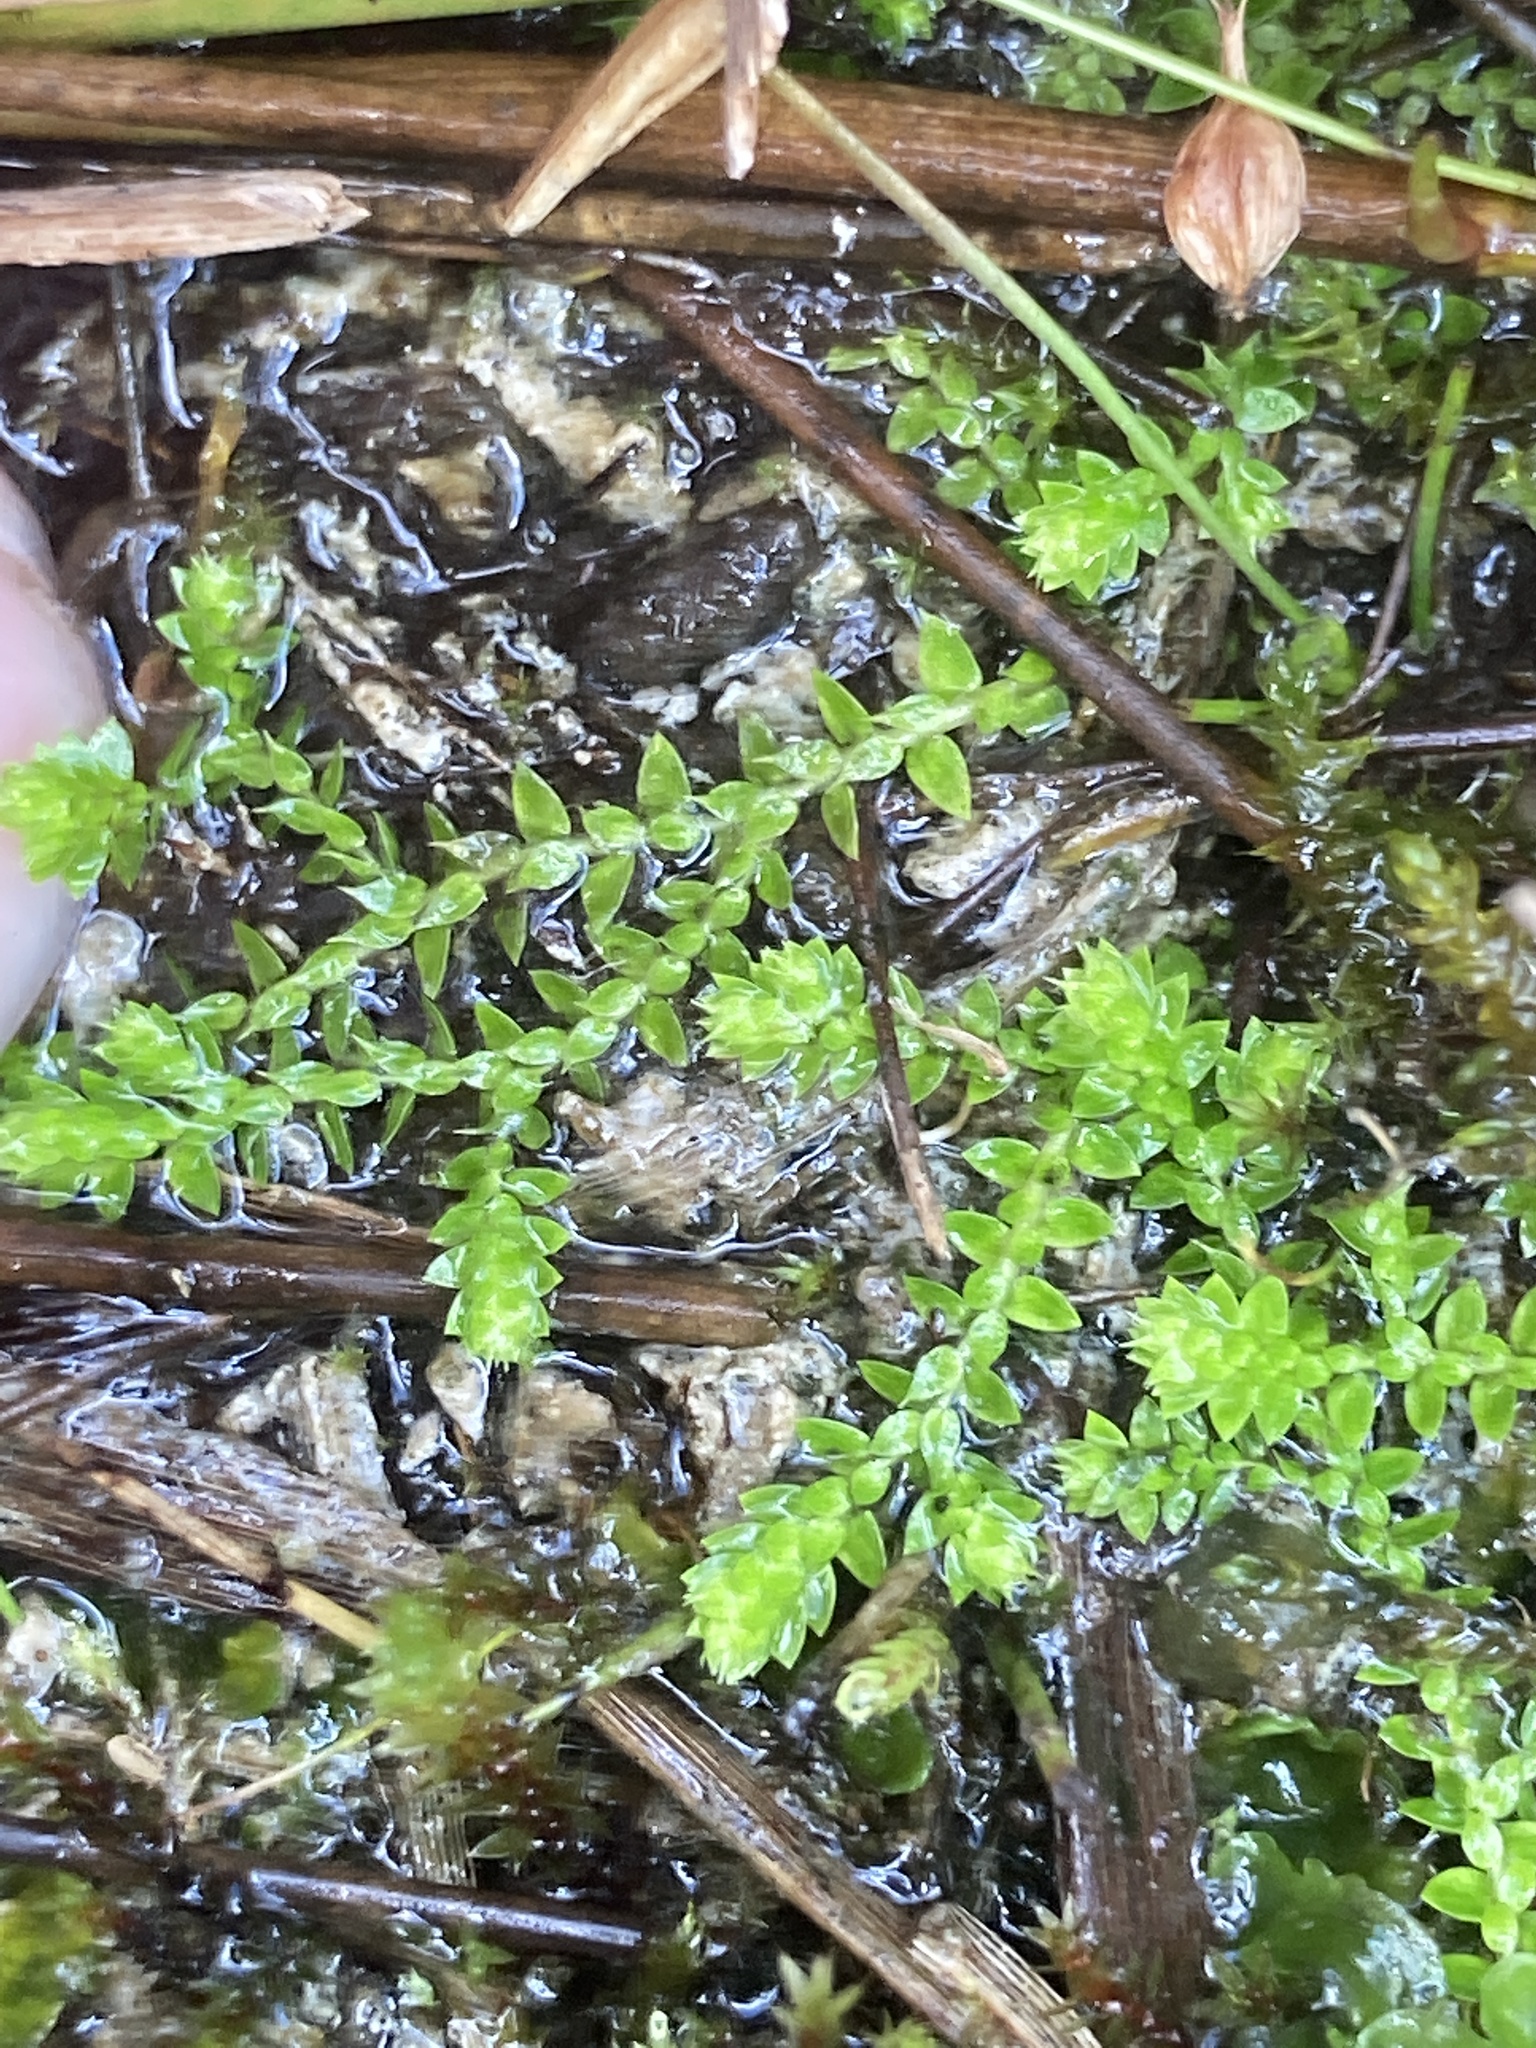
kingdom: Plantae
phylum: Tracheophyta
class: Lycopodiopsida
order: Selaginellales
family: Selaginellaceae
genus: Selaginella
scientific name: Selaginella eclipes
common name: Buck's meadow spikemoss
